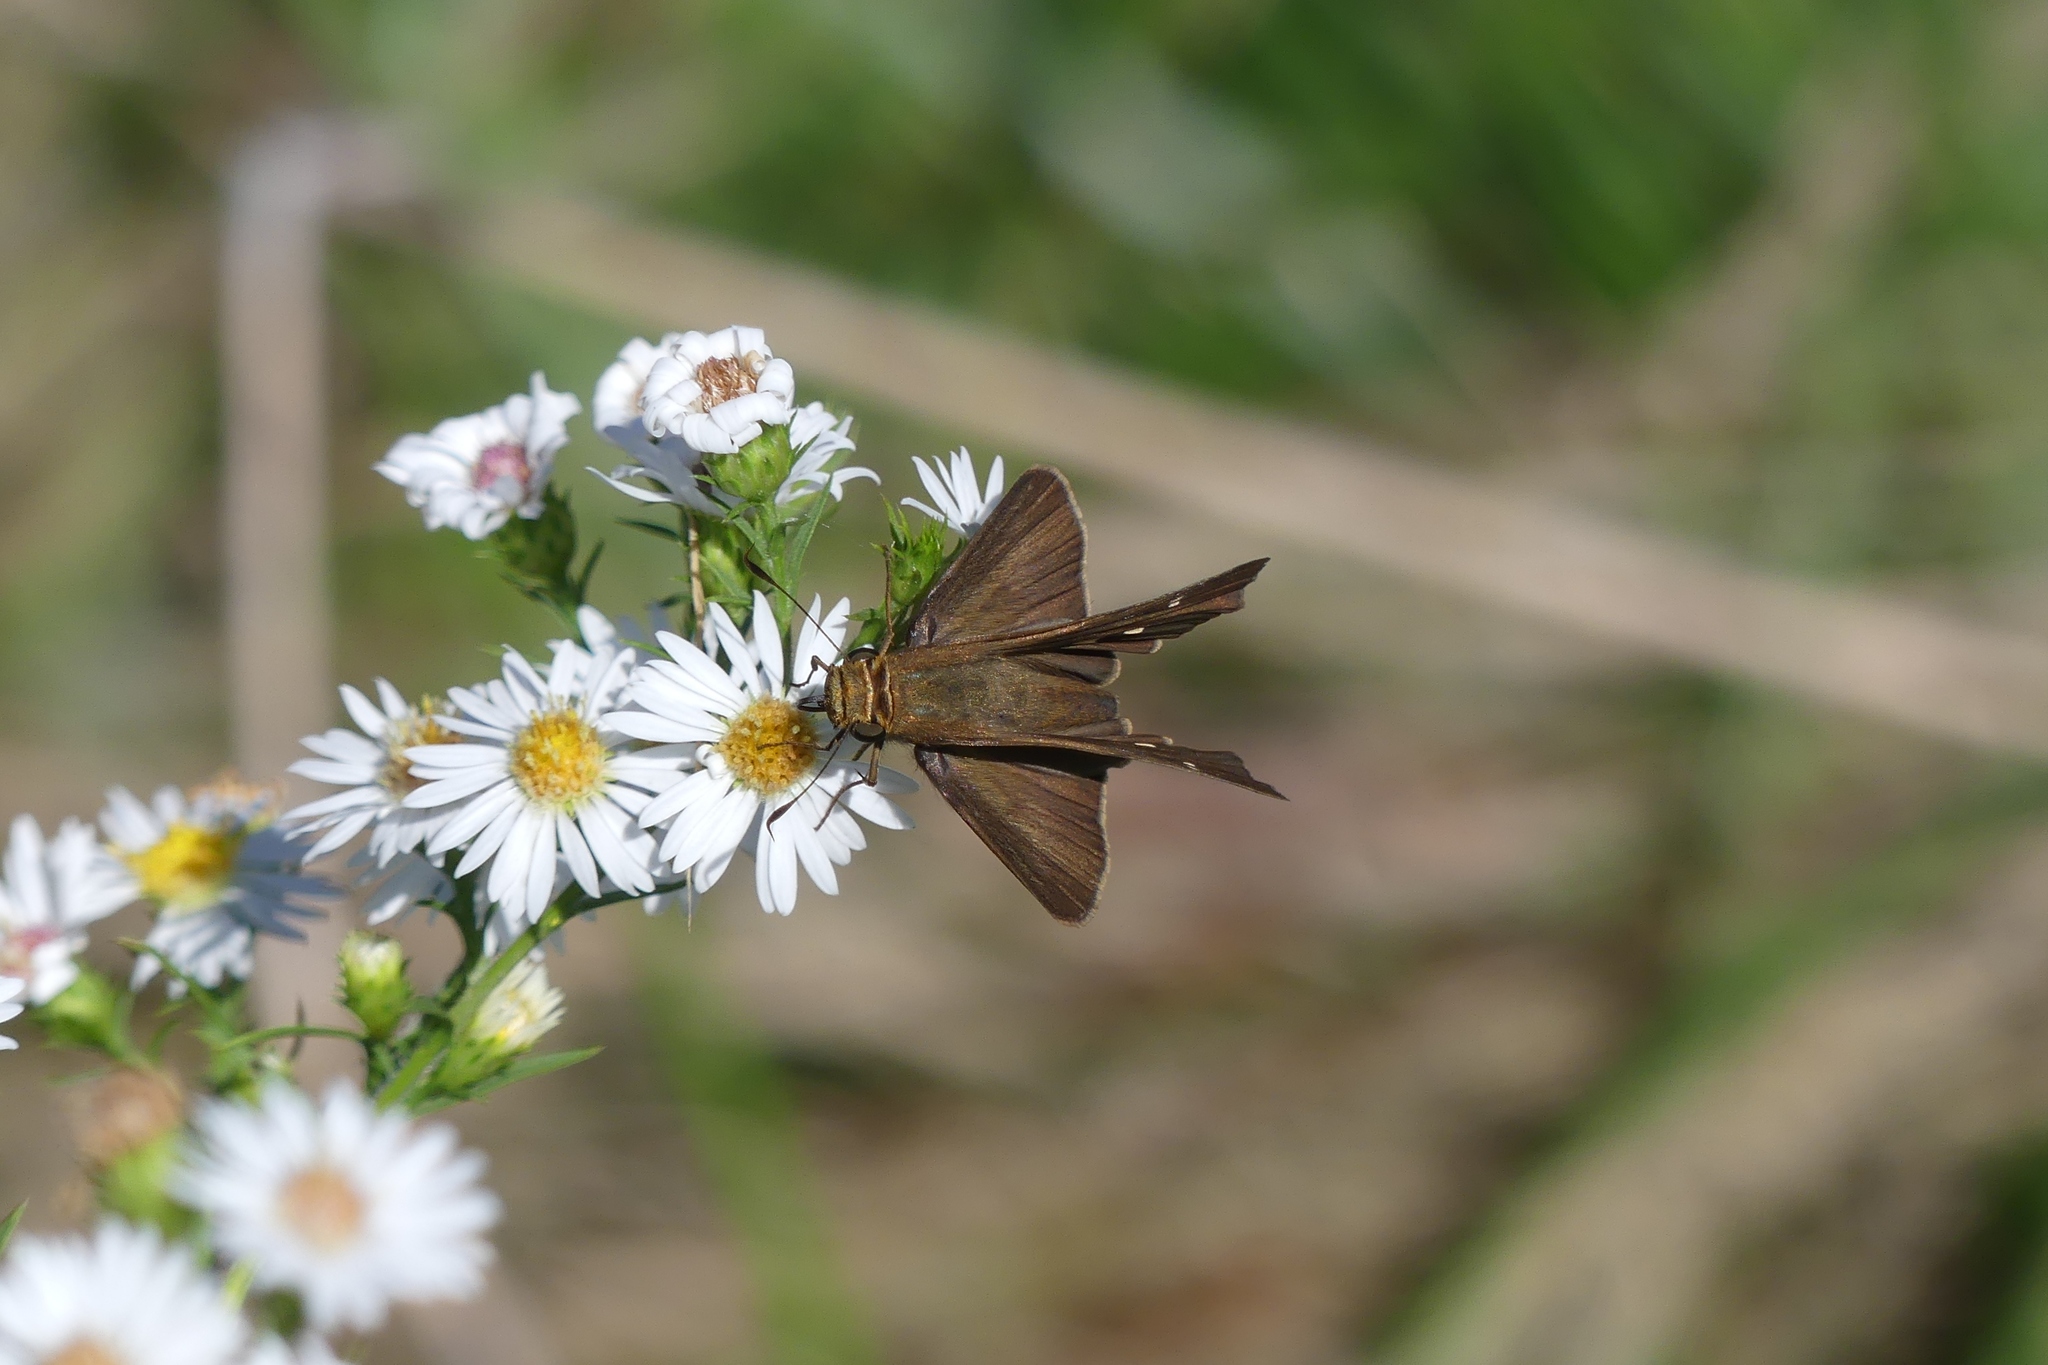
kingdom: Animalia
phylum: Arthropoda
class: Insecta
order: Lepidoptera
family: Hesperiidae
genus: Panoquina
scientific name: Panoquina ocola
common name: Ocola skipper
